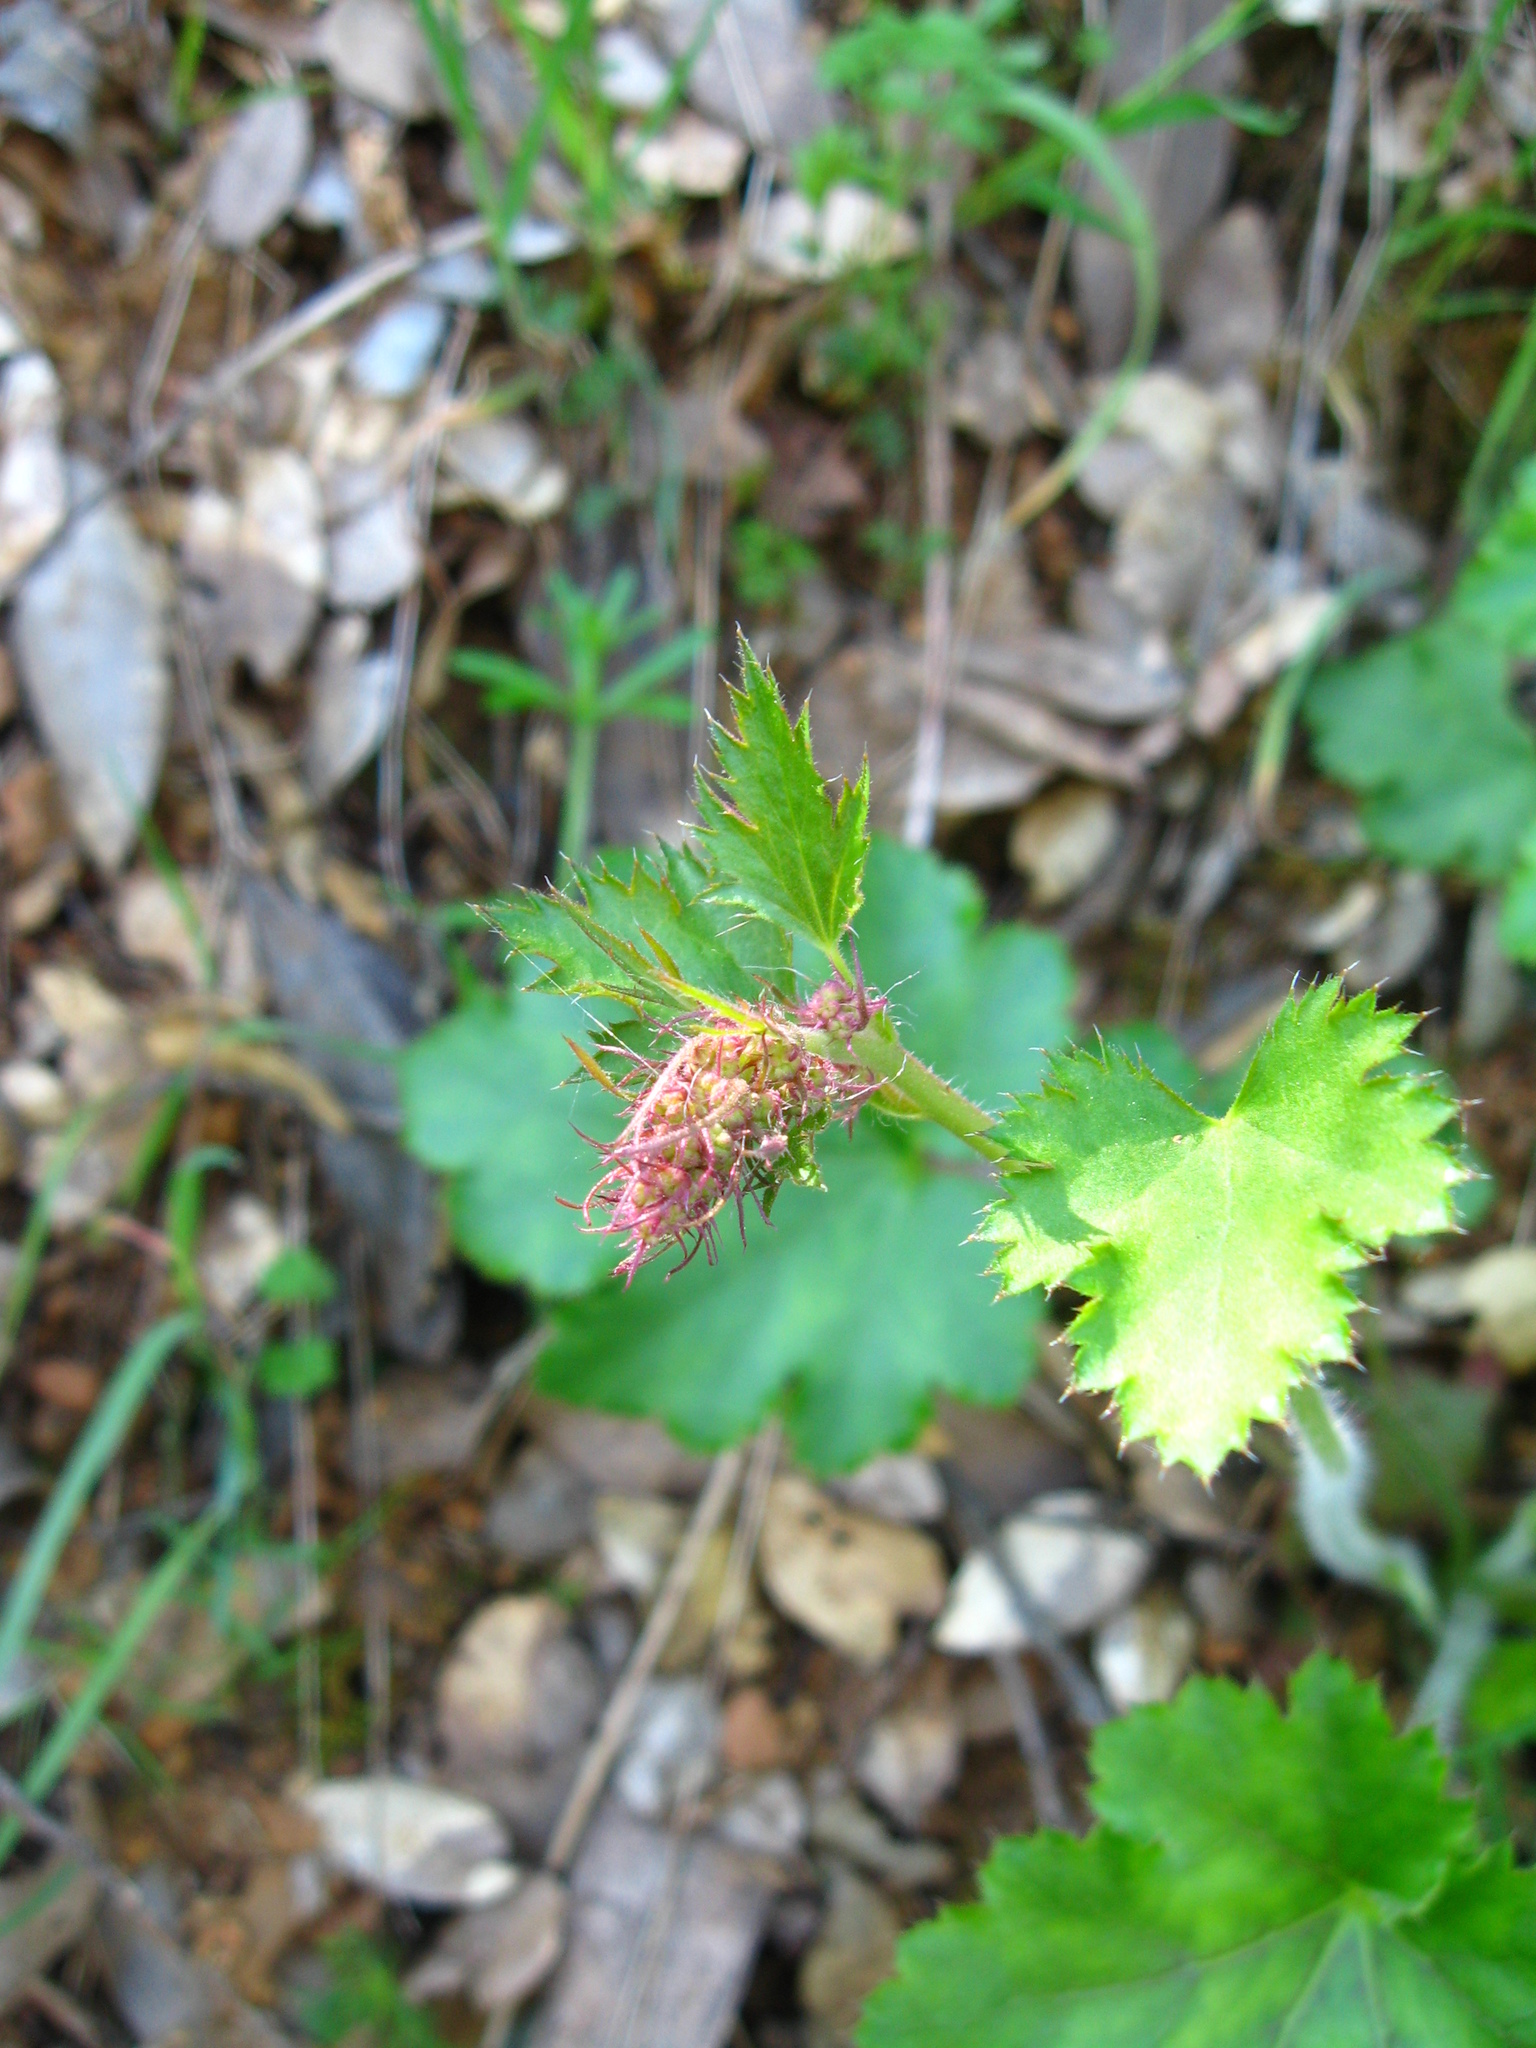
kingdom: Plantae
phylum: Tracheophyta
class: Magnoliopsida
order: Saxifragales
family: Saxifragaceae
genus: Heuchera
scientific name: Heuchera micrantha
